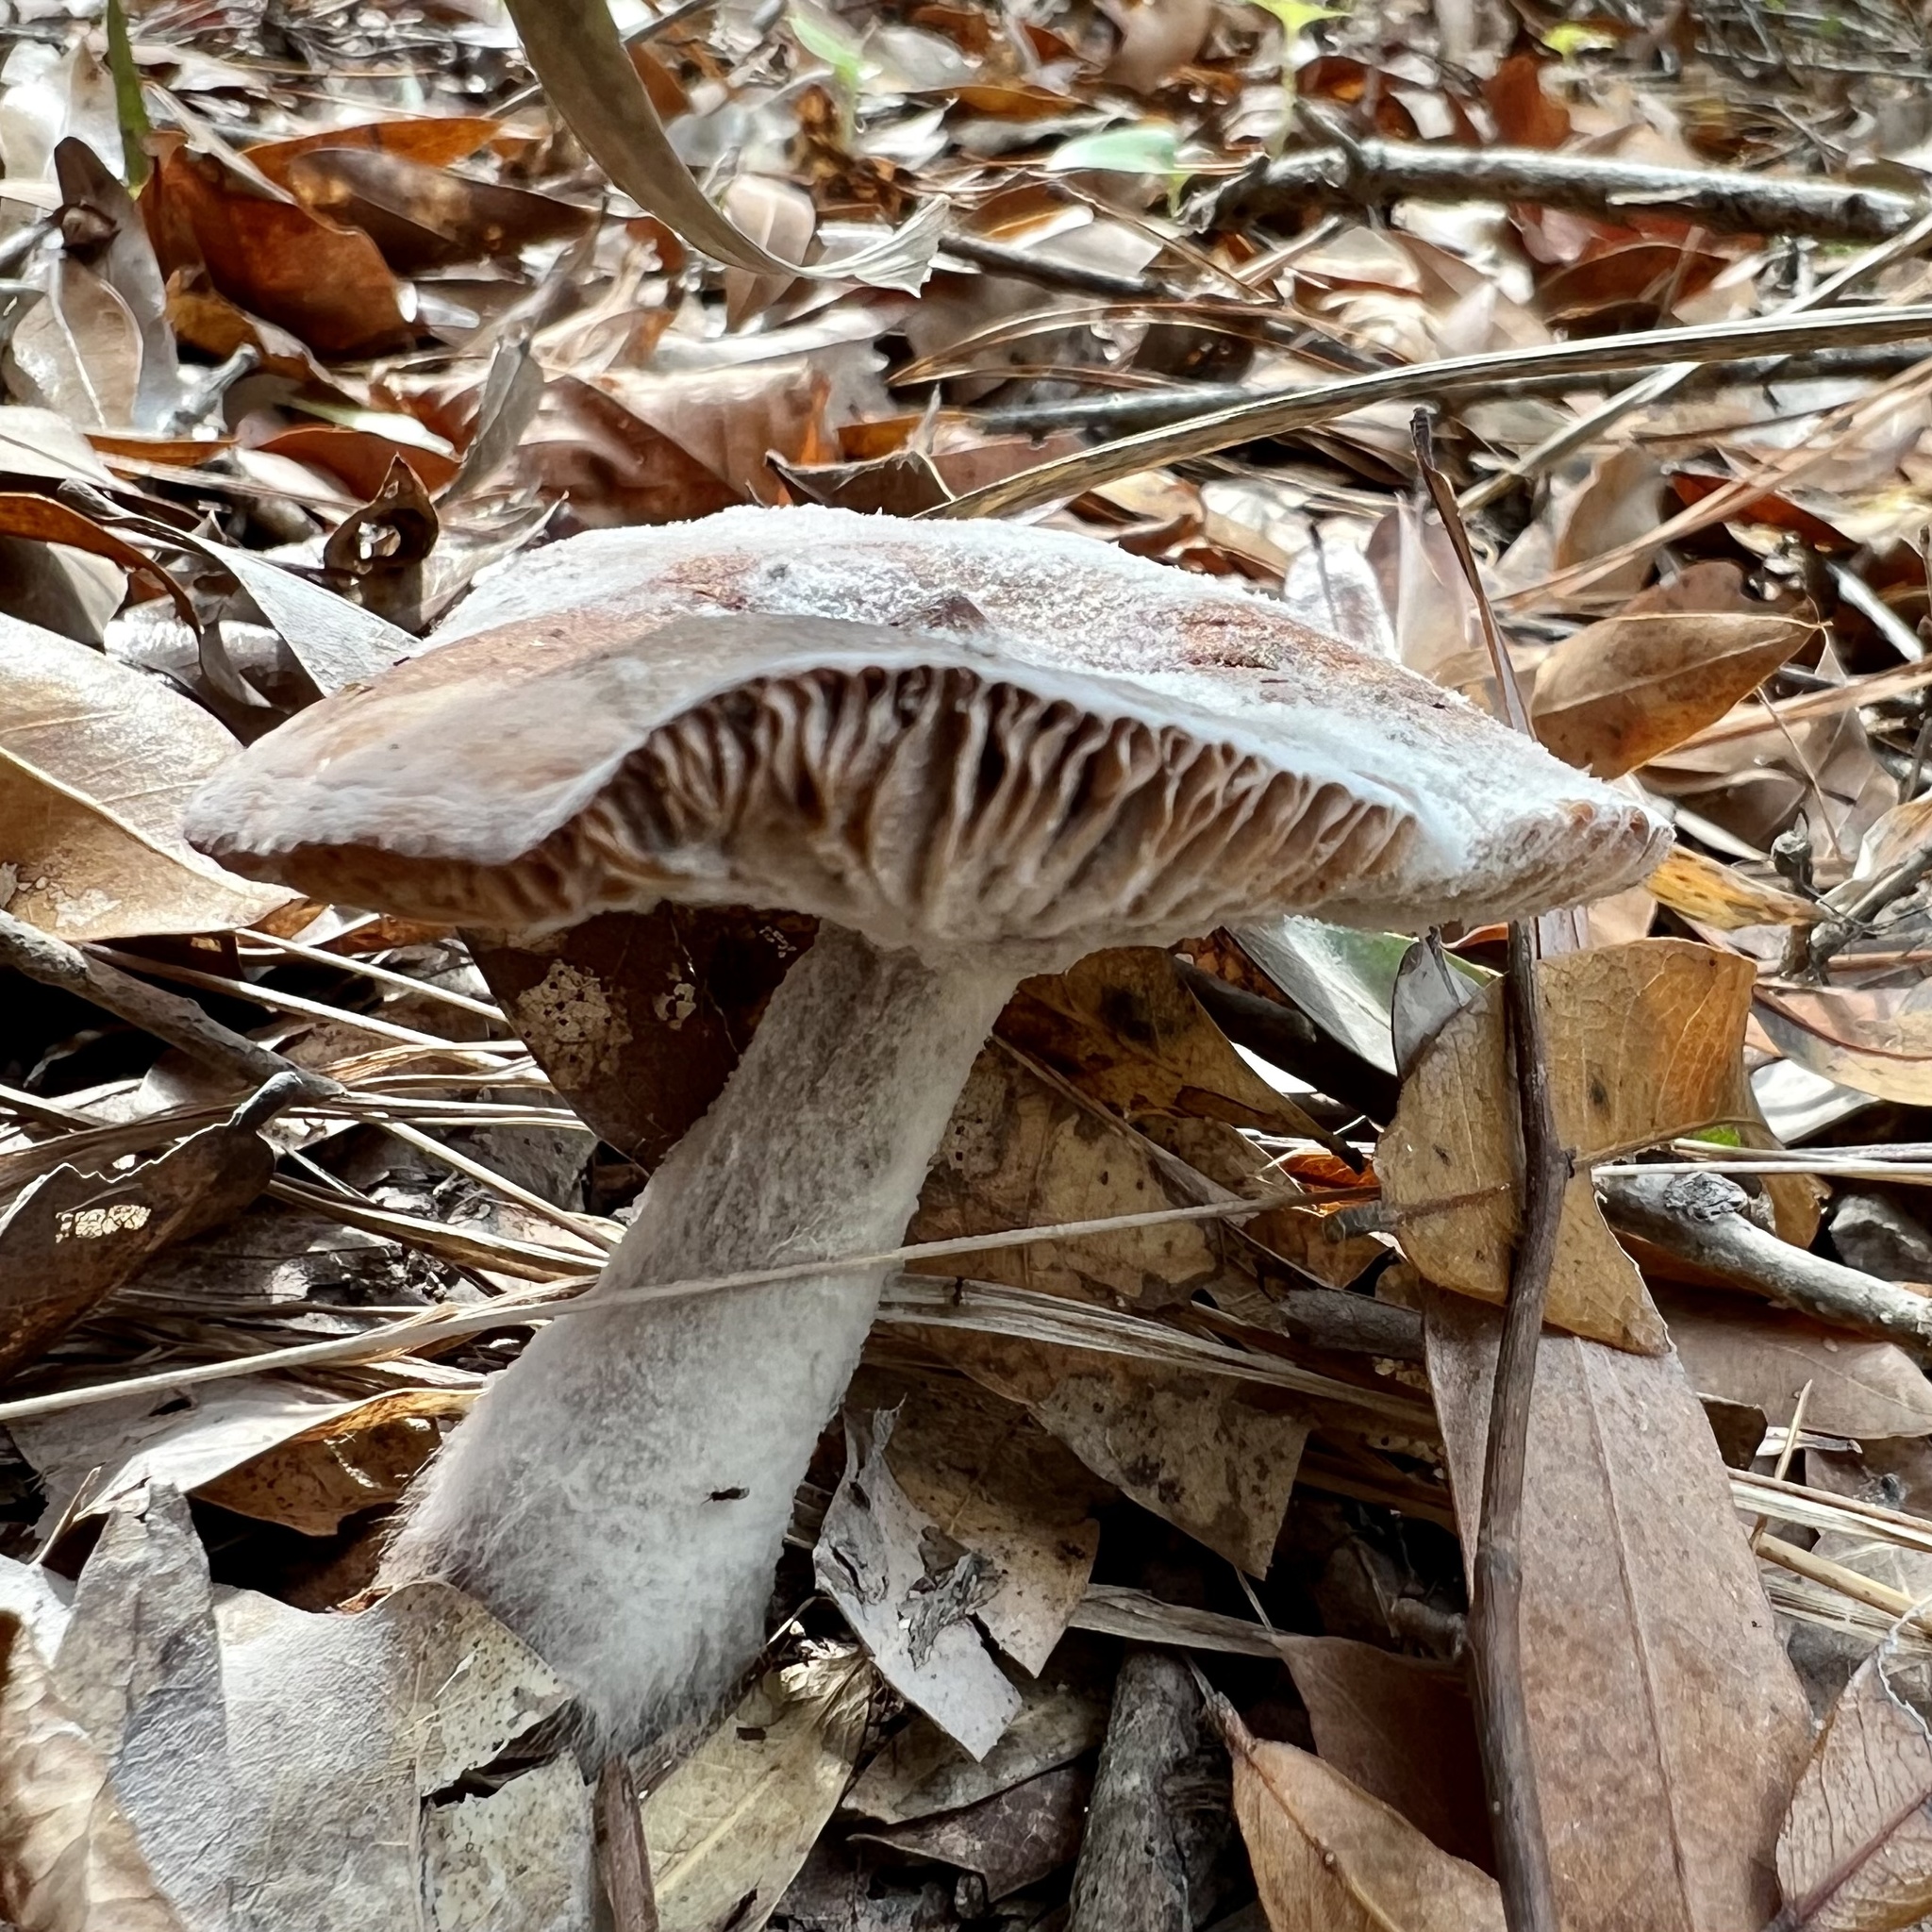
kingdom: Fungi
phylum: Mucoromycota
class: Mucoromycetes
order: Mucorales
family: Rhizopodaceae
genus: Syzygites
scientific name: Syzygites megalocarpus
